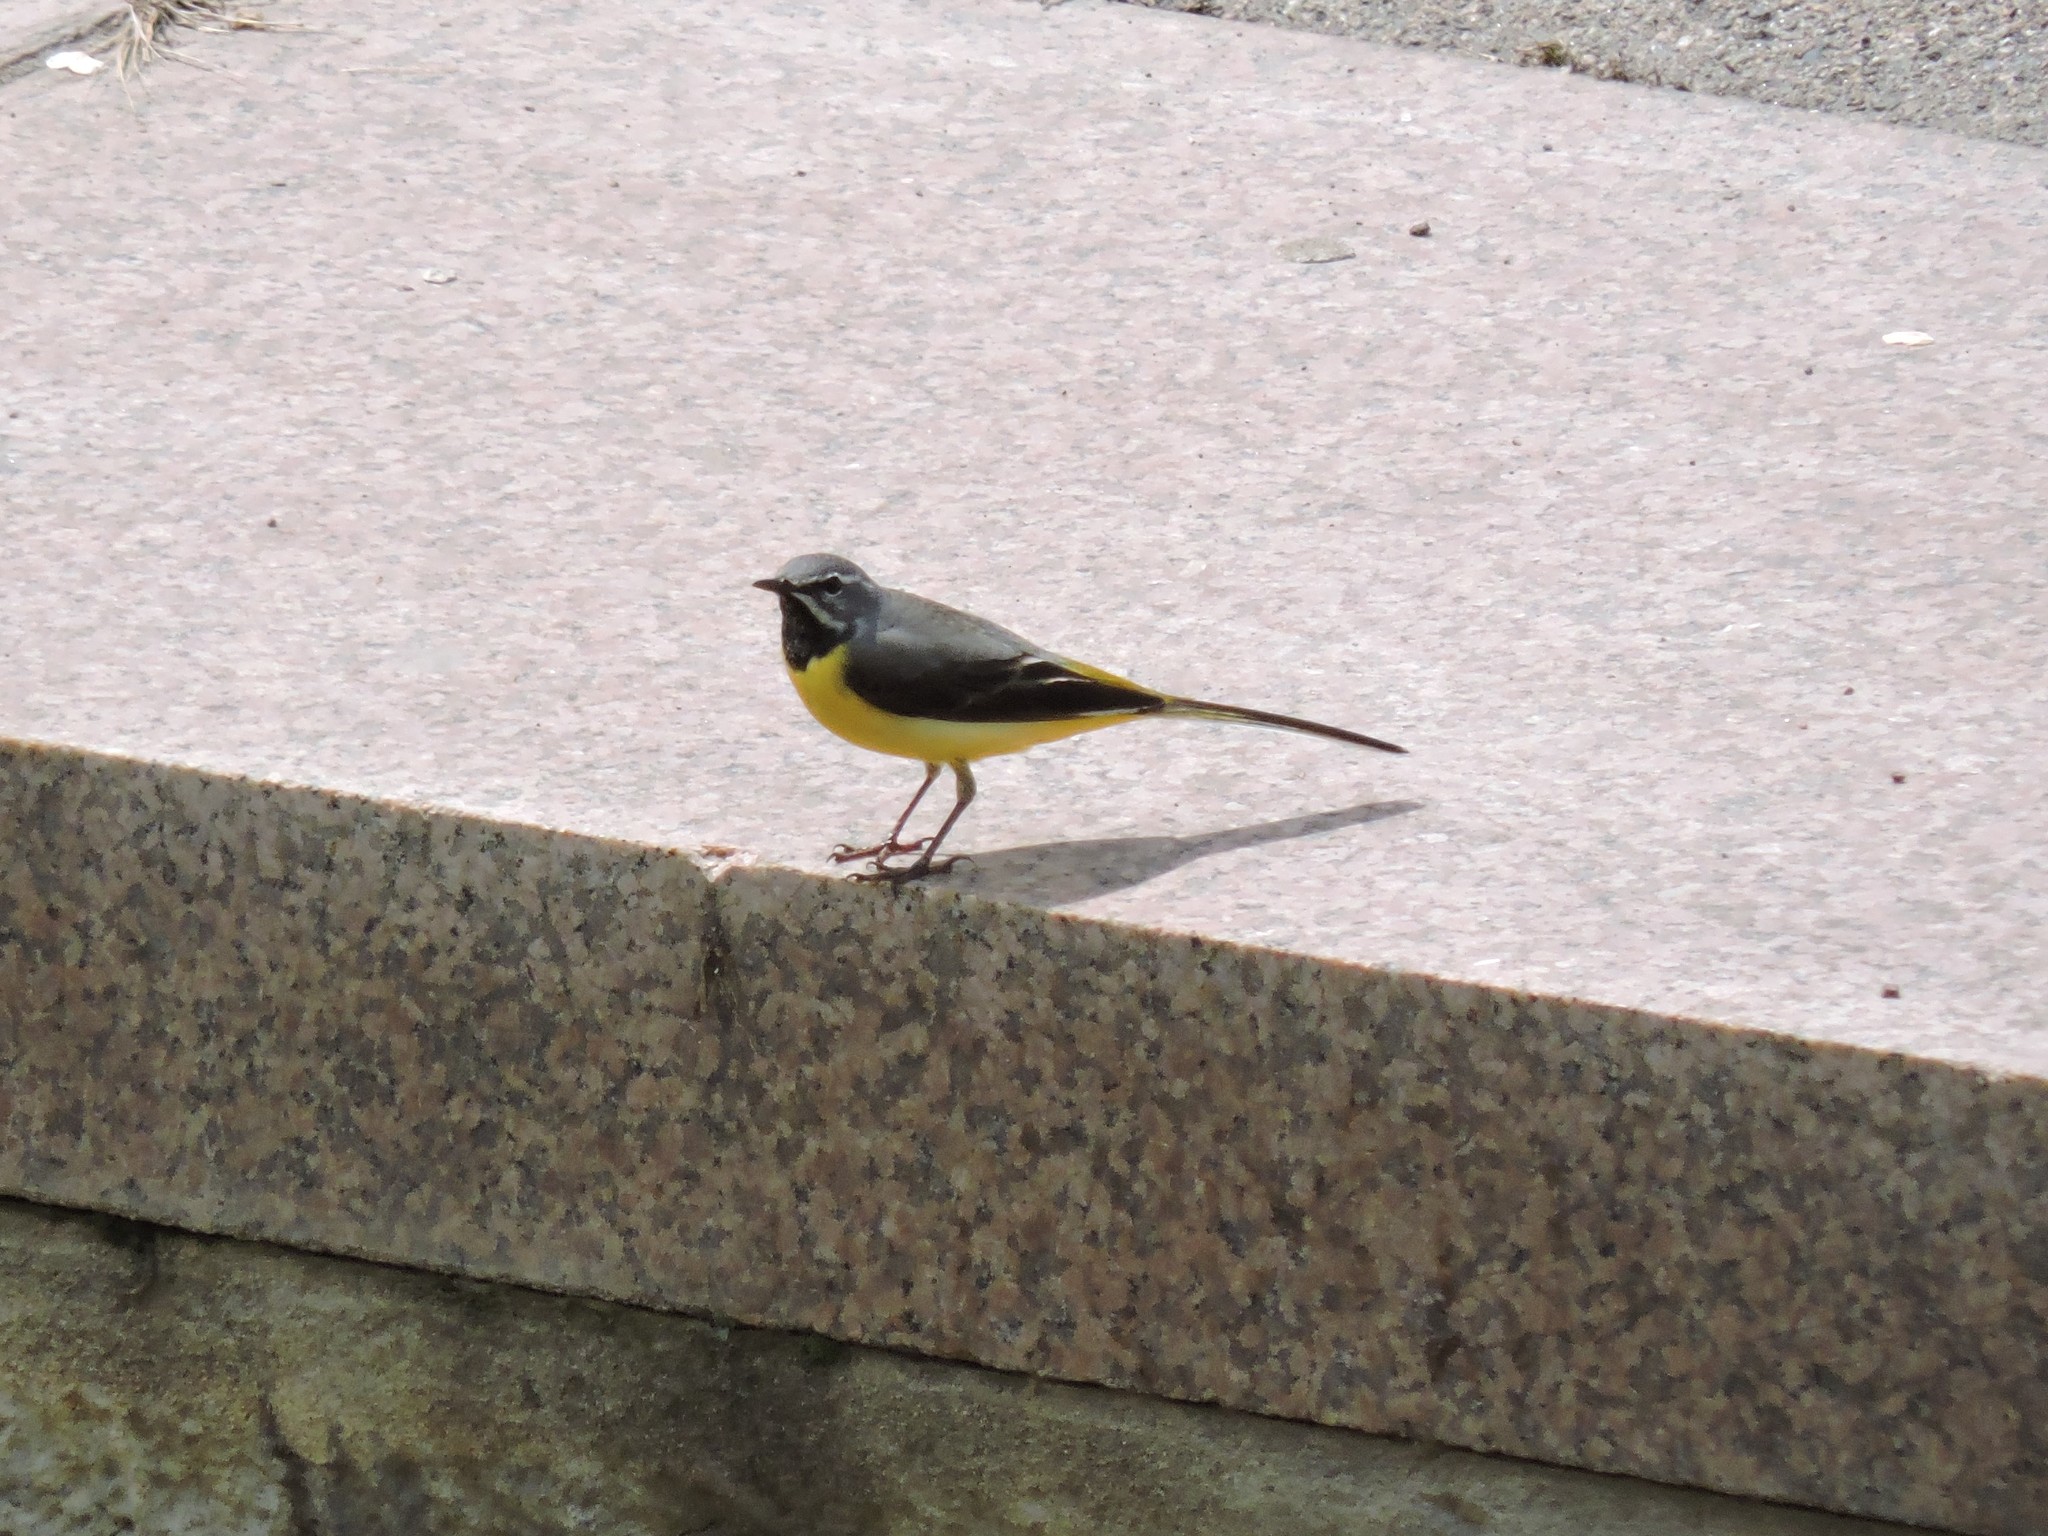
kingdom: Animalia
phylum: Chordata
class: Aves
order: Passeriformes
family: Motacillidae
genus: Motacilla
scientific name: Motacilla cinerea
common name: Grey wagtail
